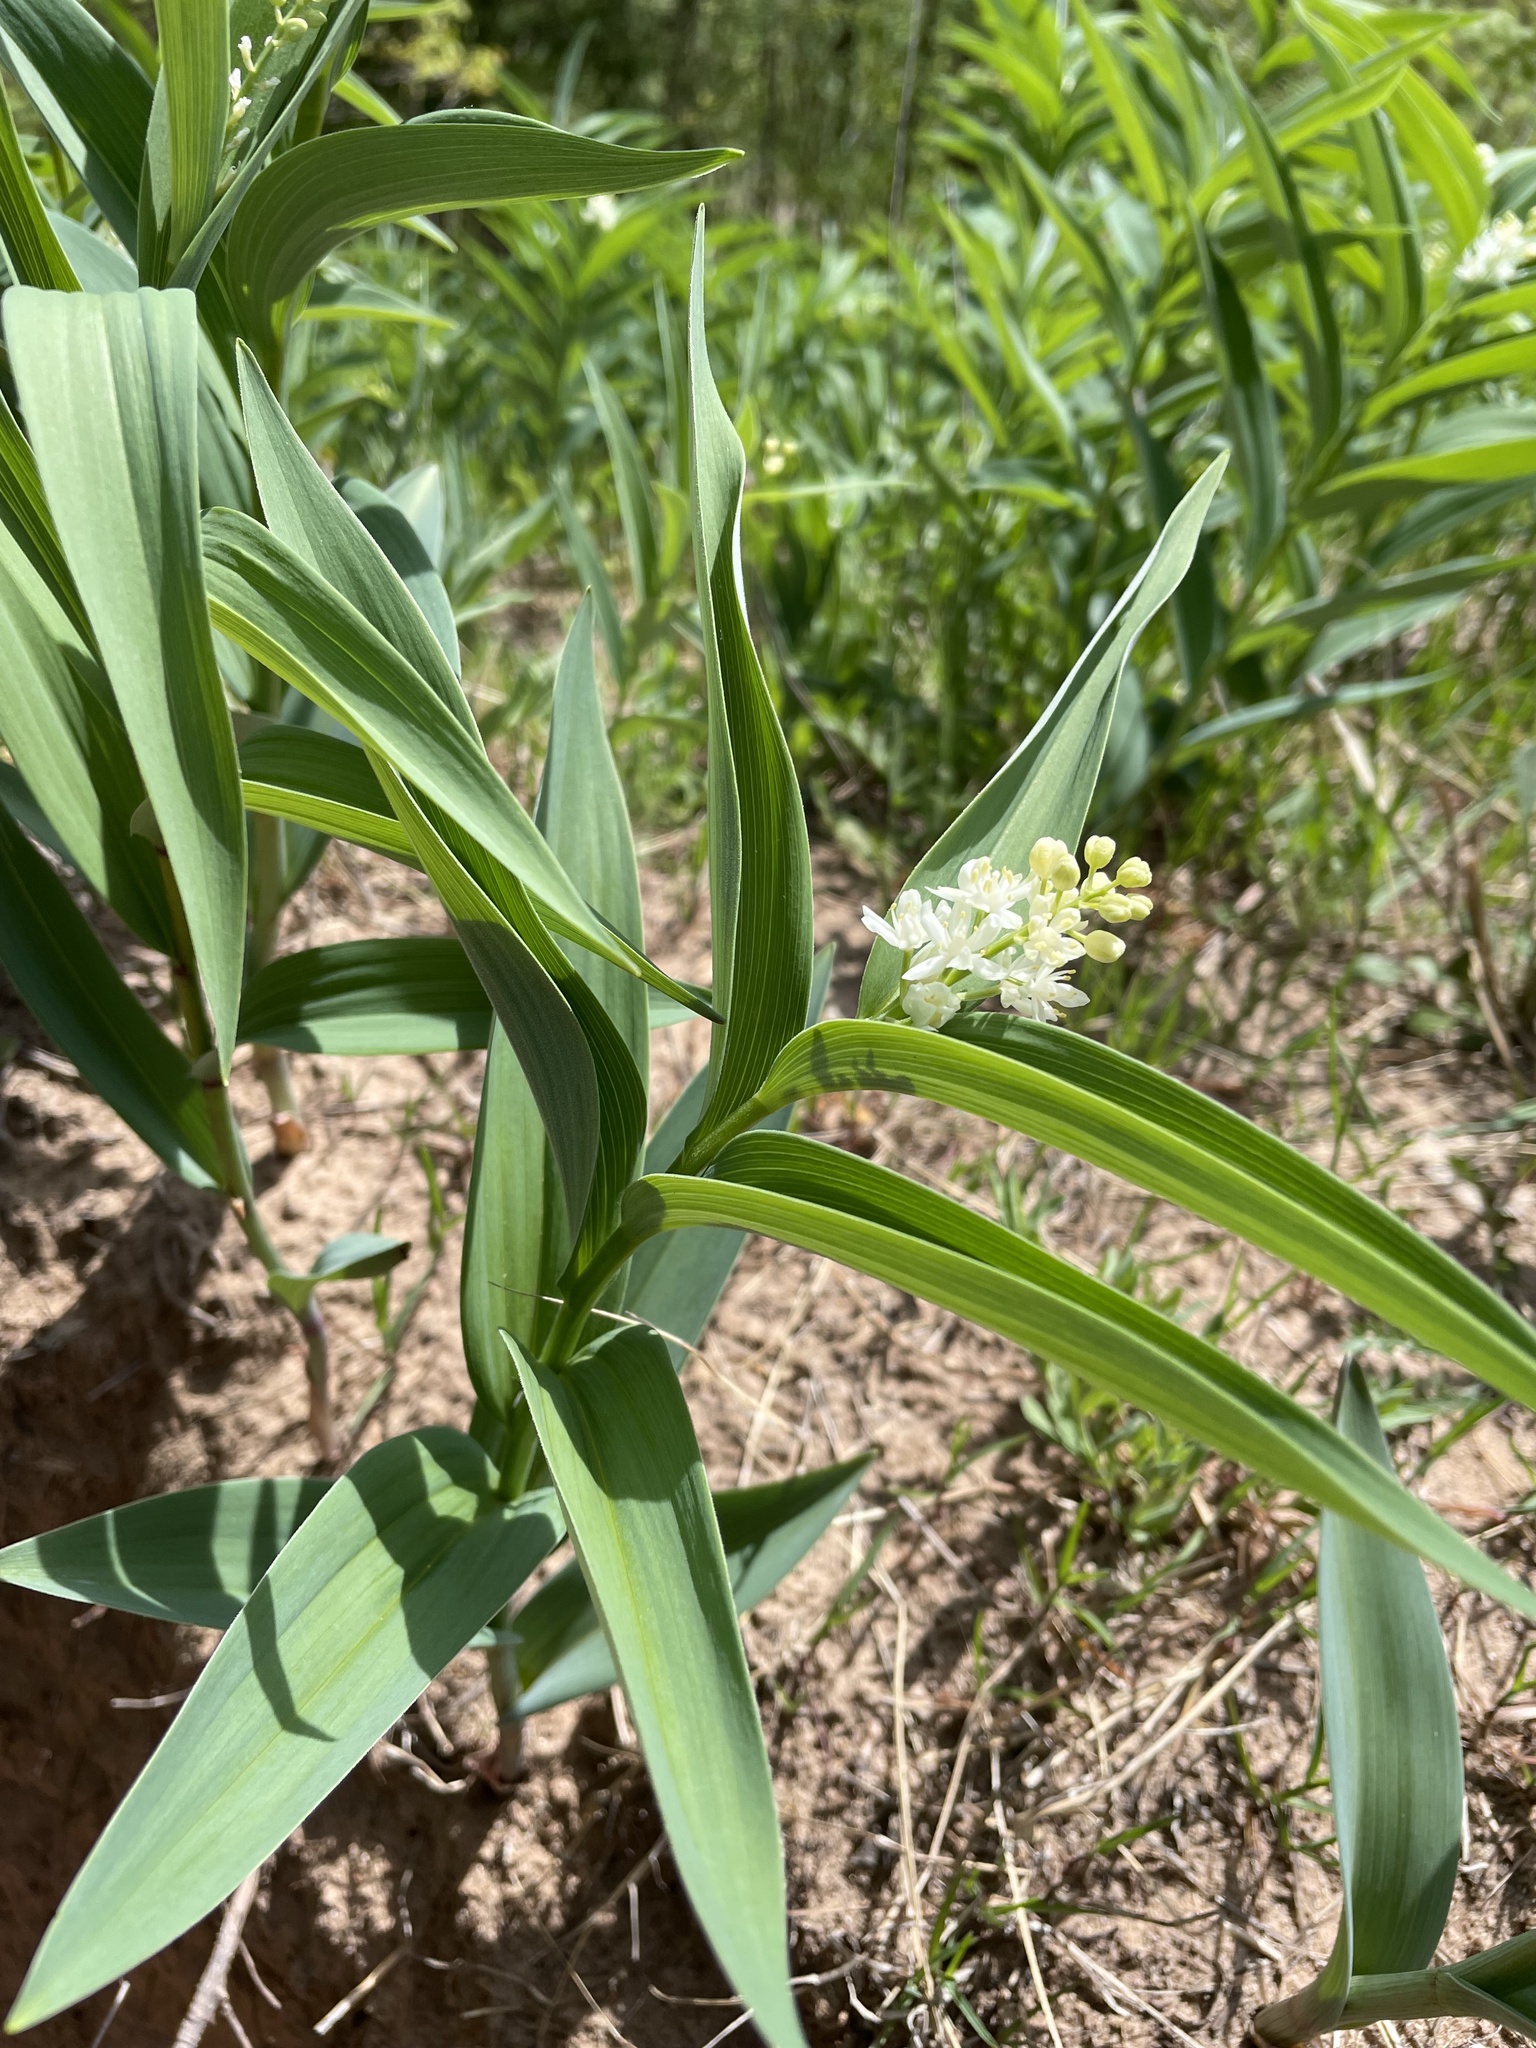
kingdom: Plantae
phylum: Tracheophyta
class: Liliopsida
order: Asparagales
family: Asparagaceae
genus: Maianthemum
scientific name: Maianthemum stellatum
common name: Little false solomon's seal
